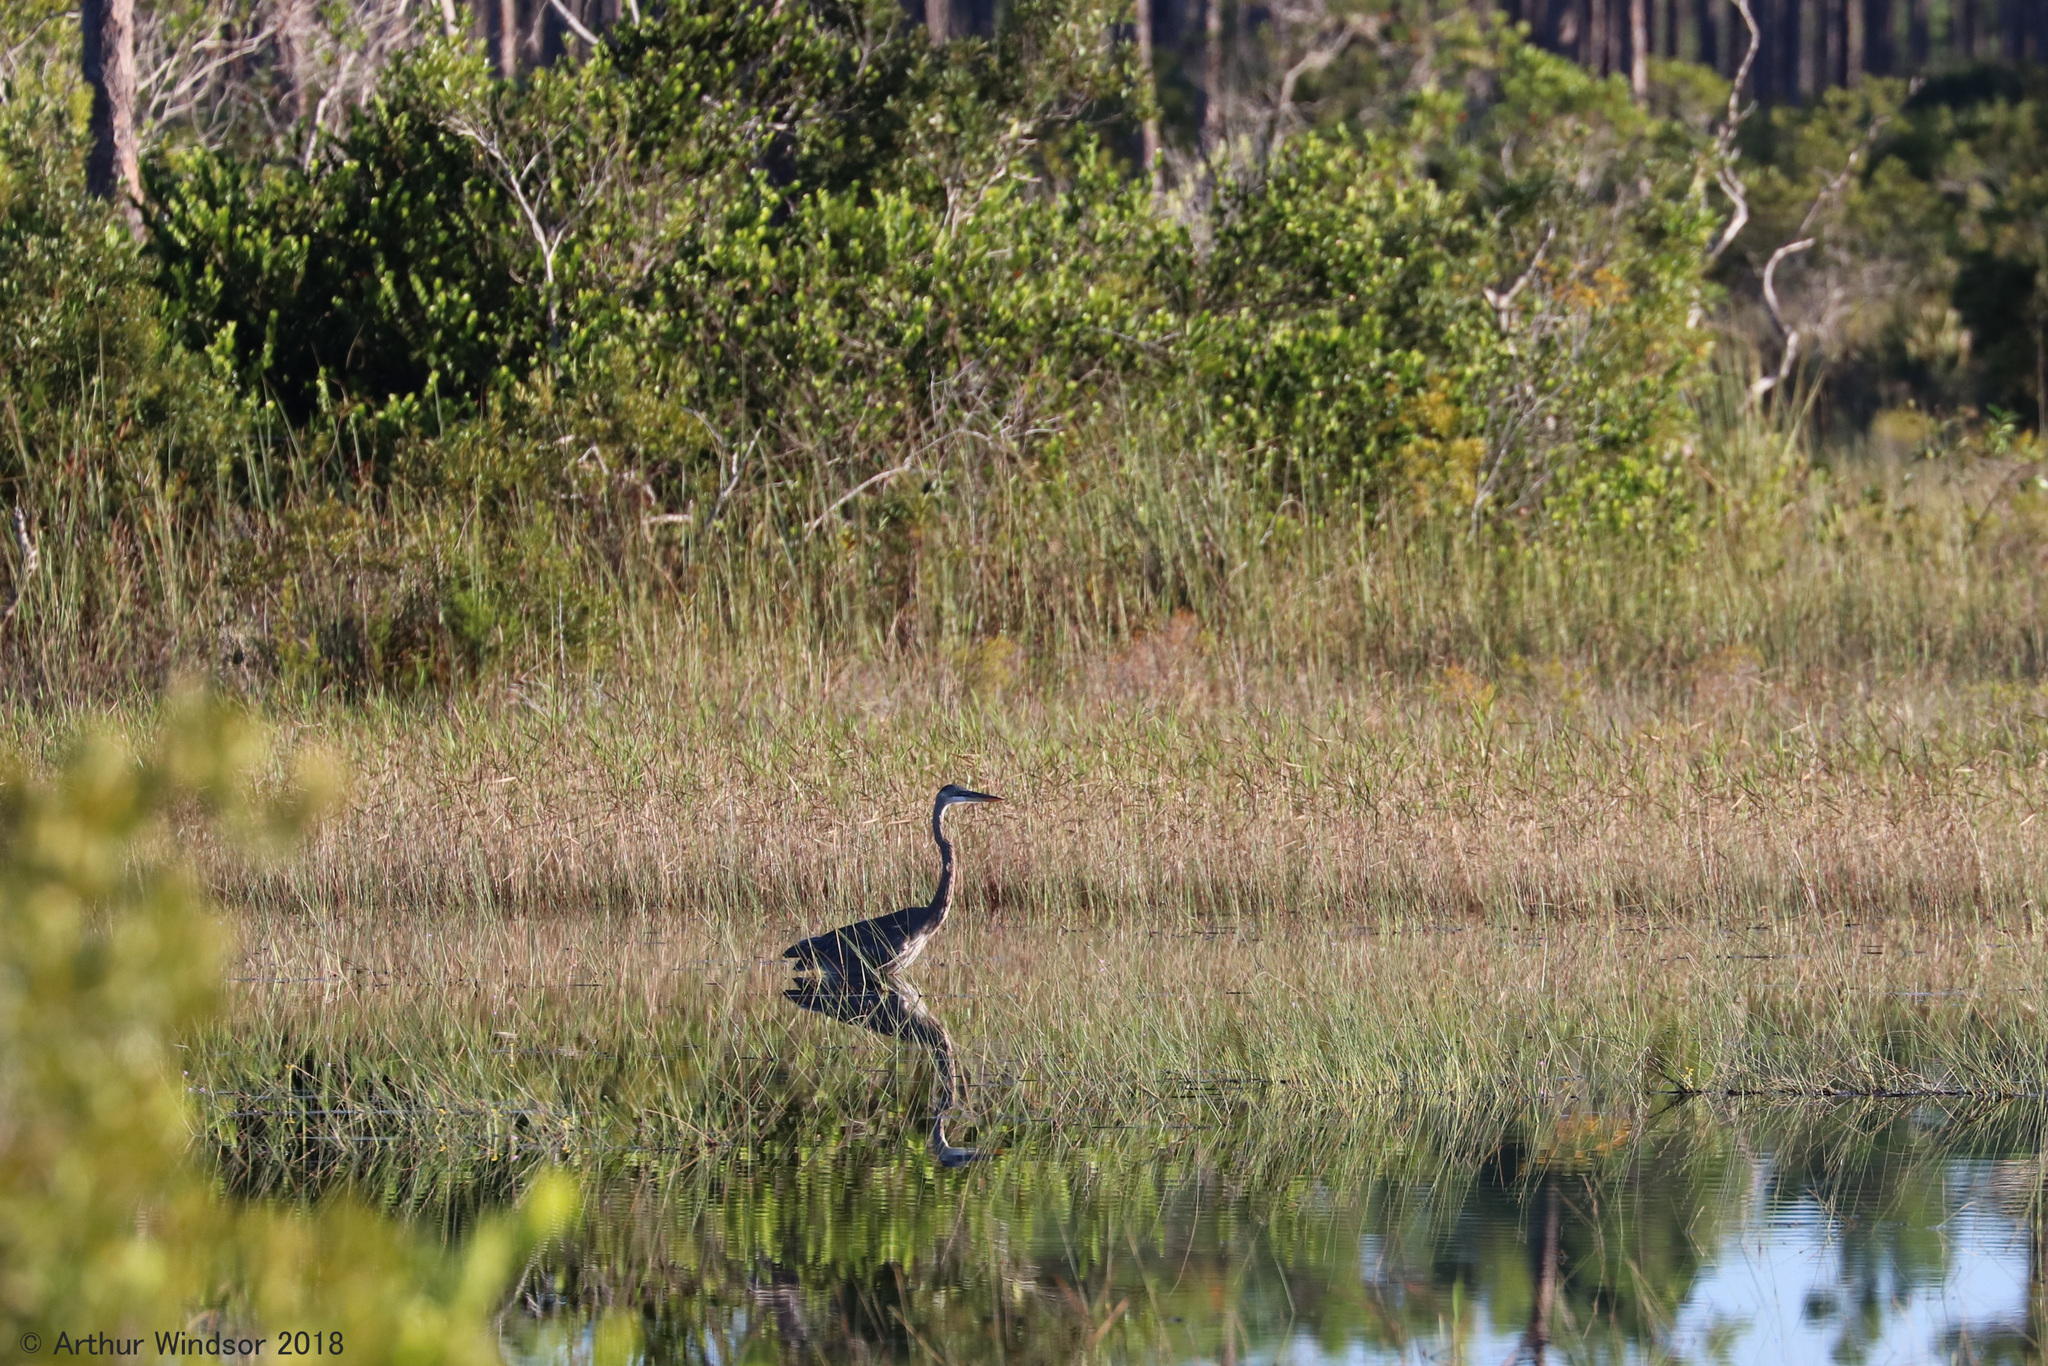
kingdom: Animalia
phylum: Chordata
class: Aves
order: Pelecaniformes
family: Ardeidae
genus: Ardea
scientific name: Ardea herodias
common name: Great blue heron
